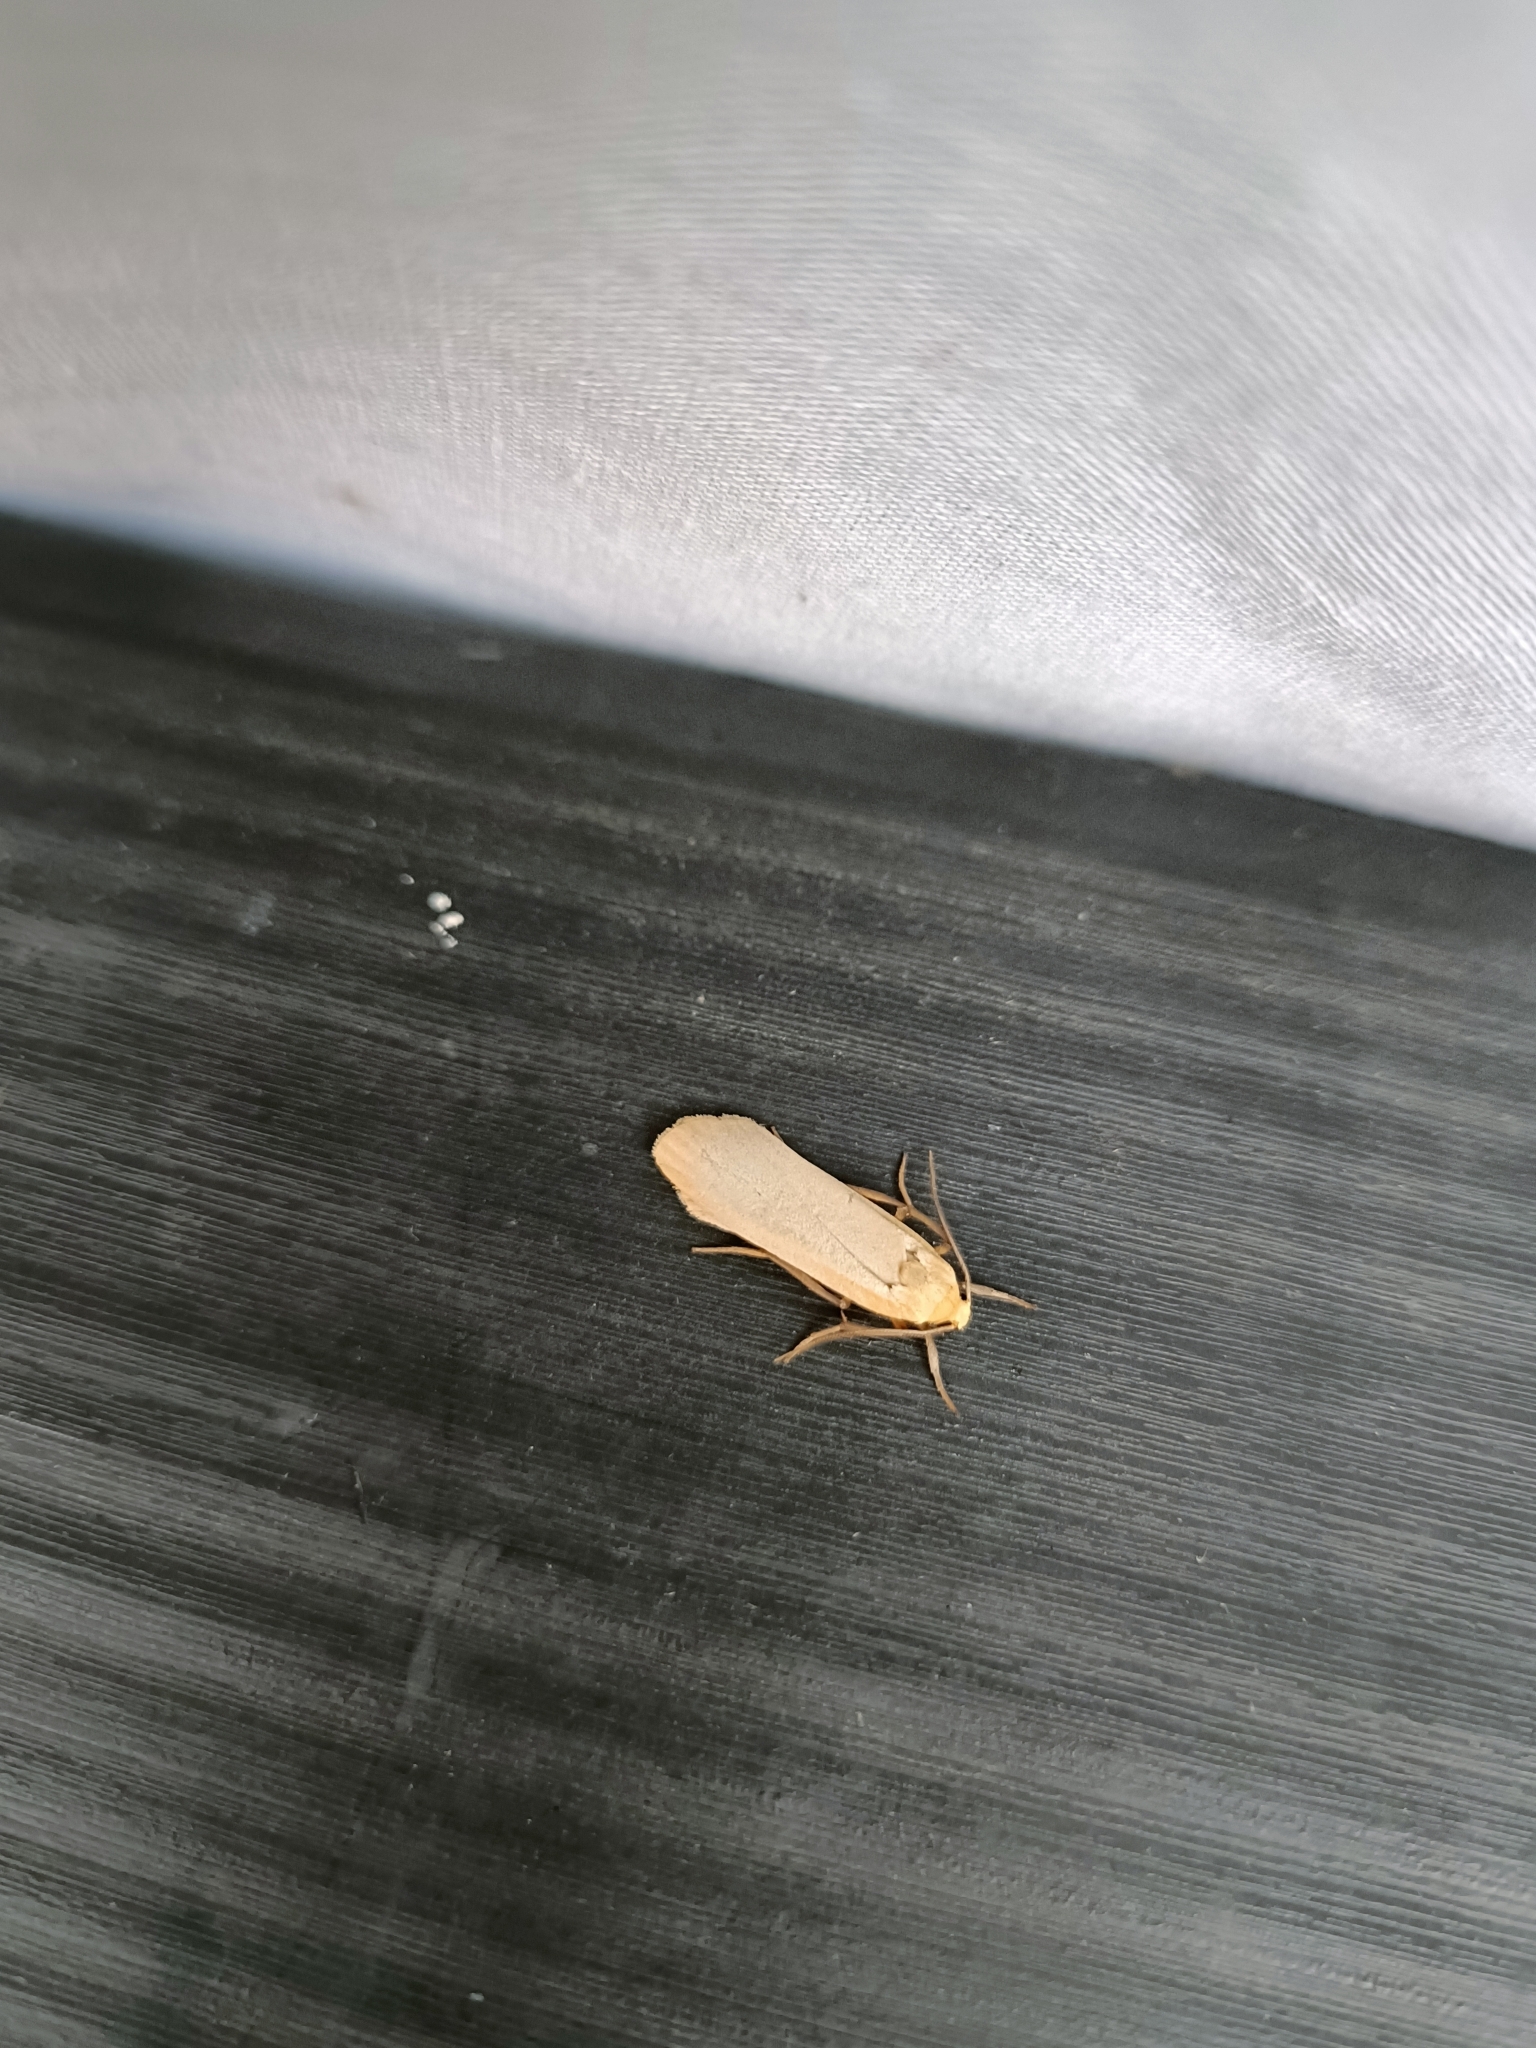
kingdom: Animalia
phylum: Arthropoda
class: Insecta
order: Lepidoptera
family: Erebidae
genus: Katha
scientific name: Katha depressa
